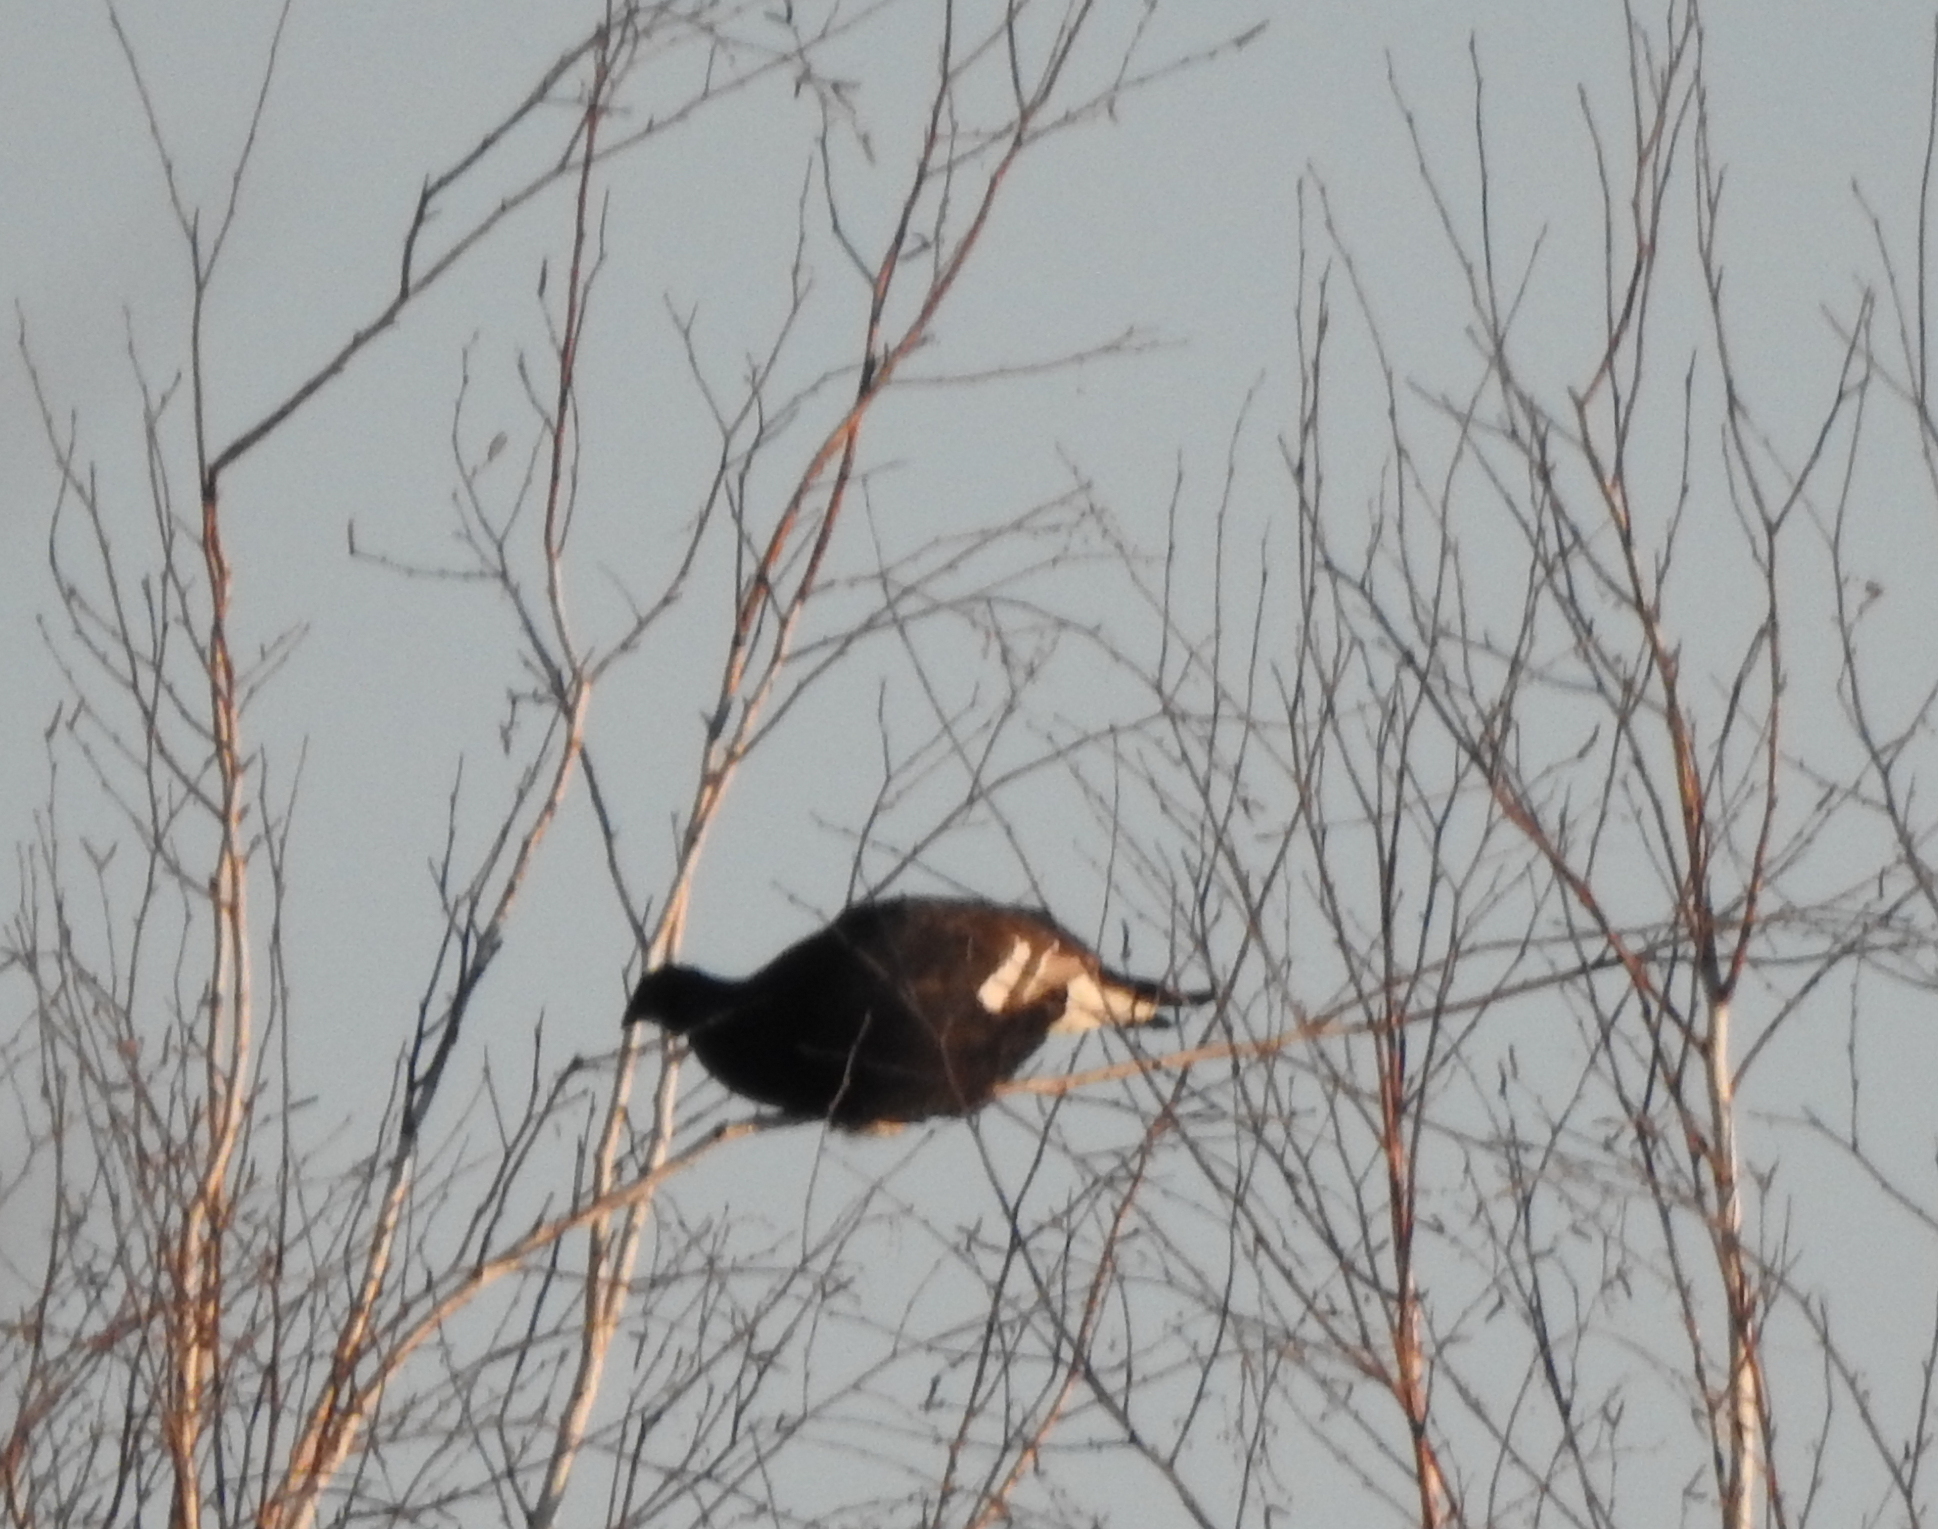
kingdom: Animalia
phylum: Chordata
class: Aves
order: Galliformes
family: Phasianidae
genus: Lyrurus
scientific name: Lyrurus tetrix
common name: Black grouse
